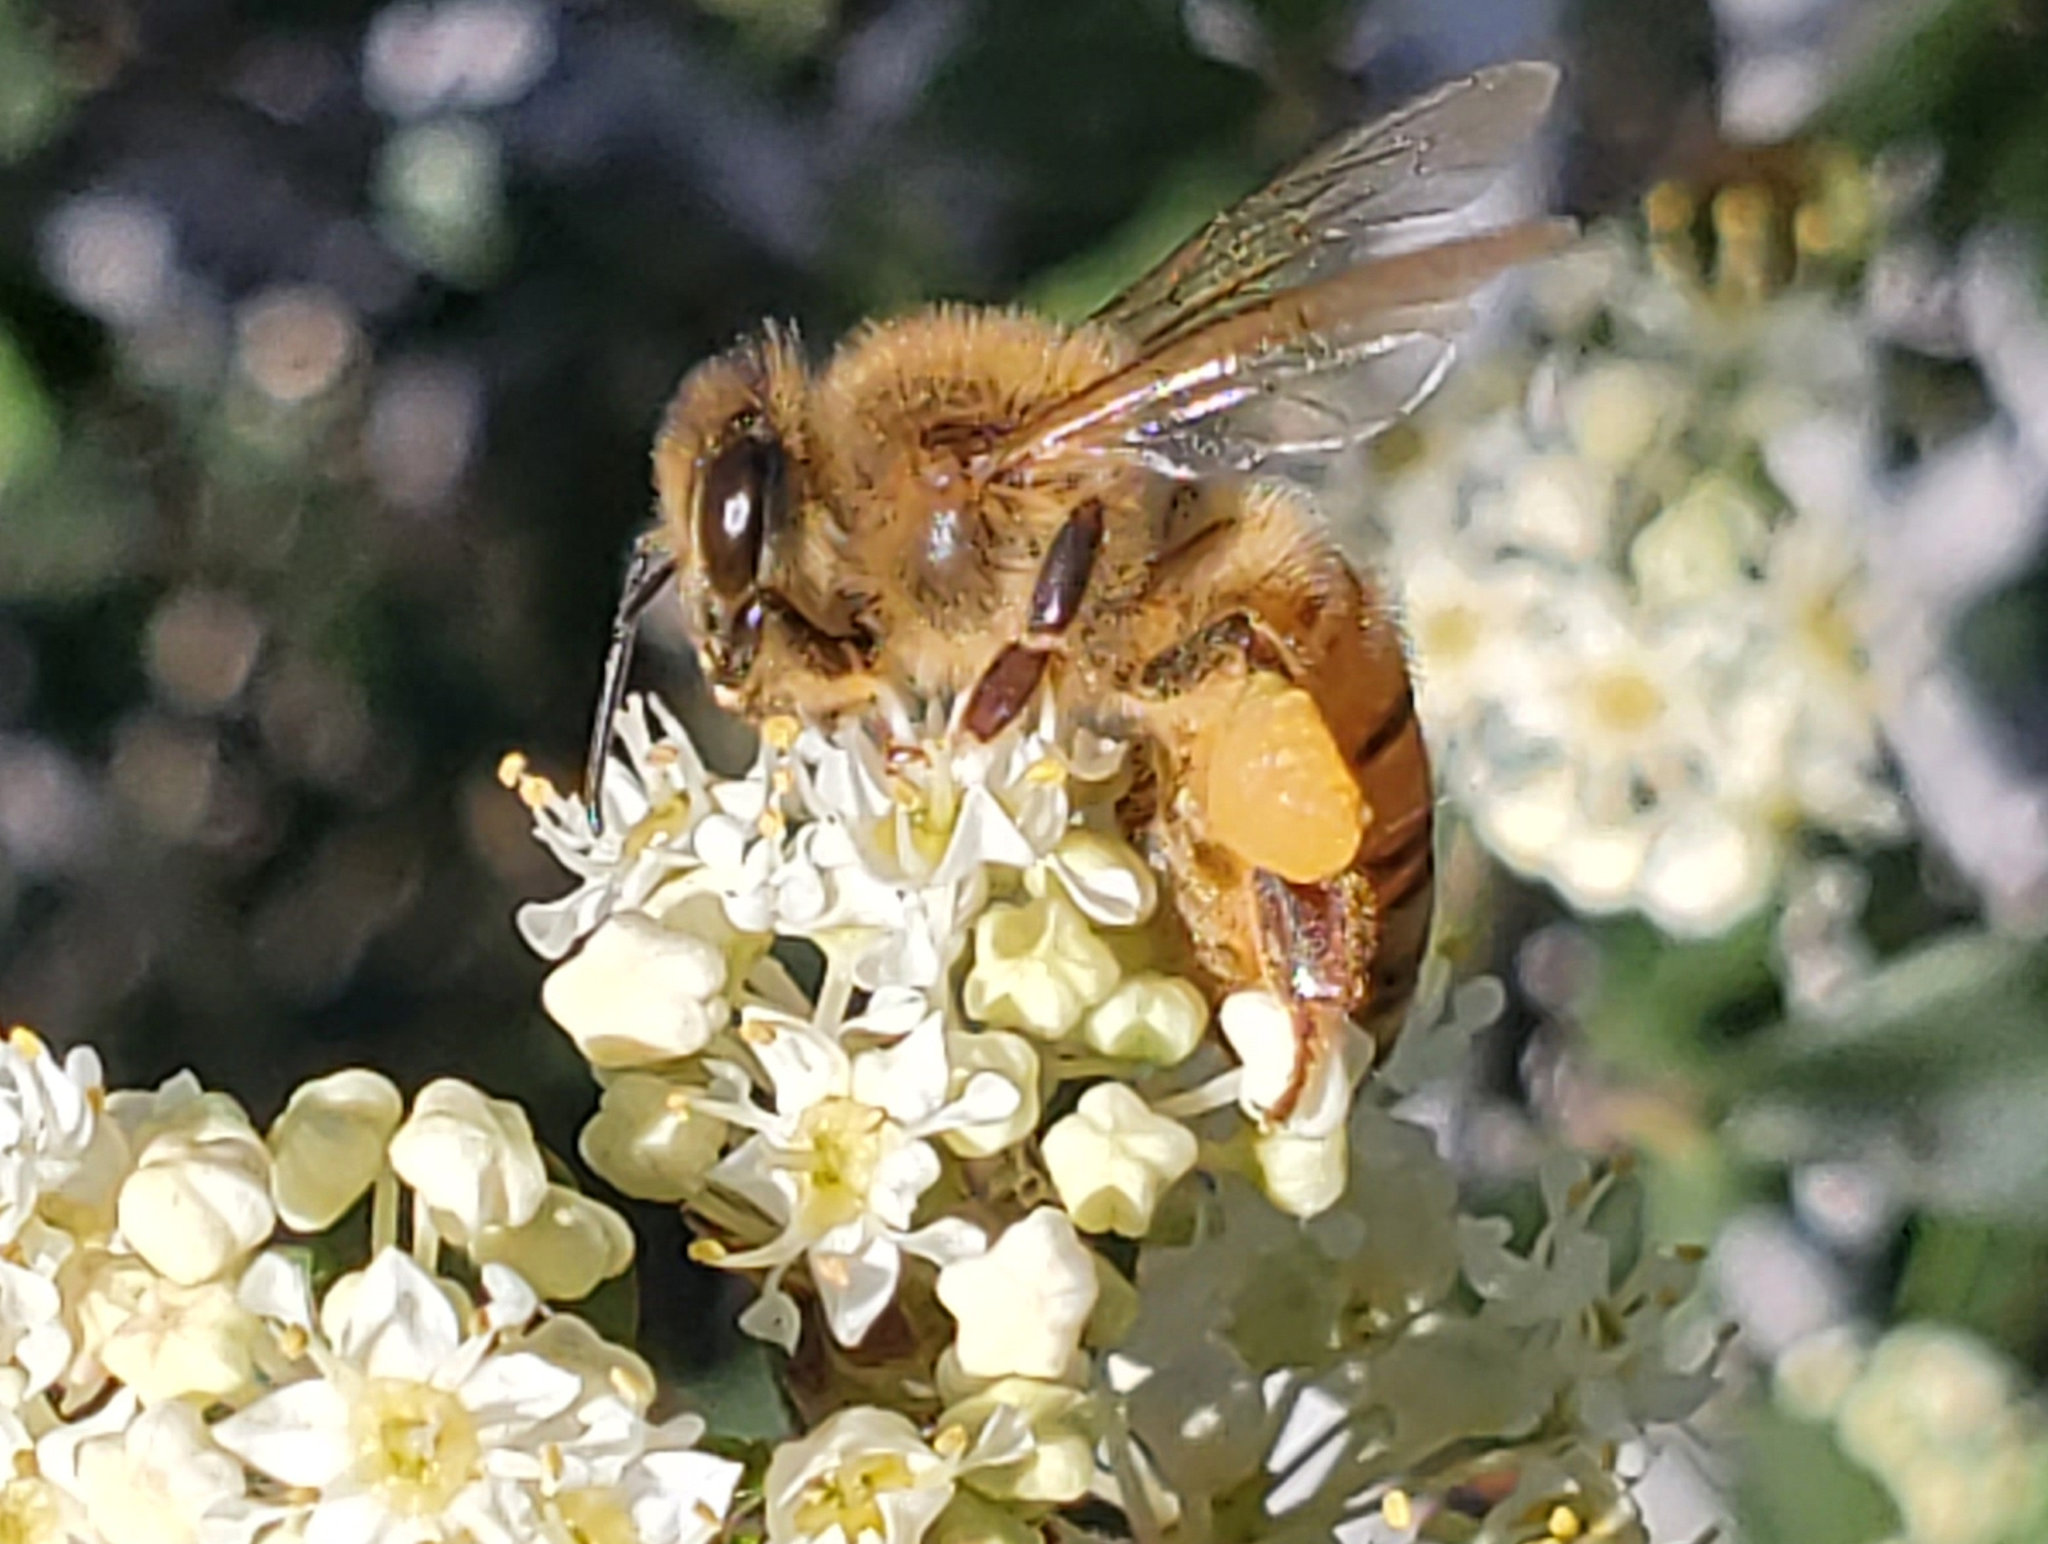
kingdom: Animalia
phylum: Arthropoda
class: Insecta
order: Hymenoptera
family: Apidae
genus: Apis
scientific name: Apis mellifera
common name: Honey bee
